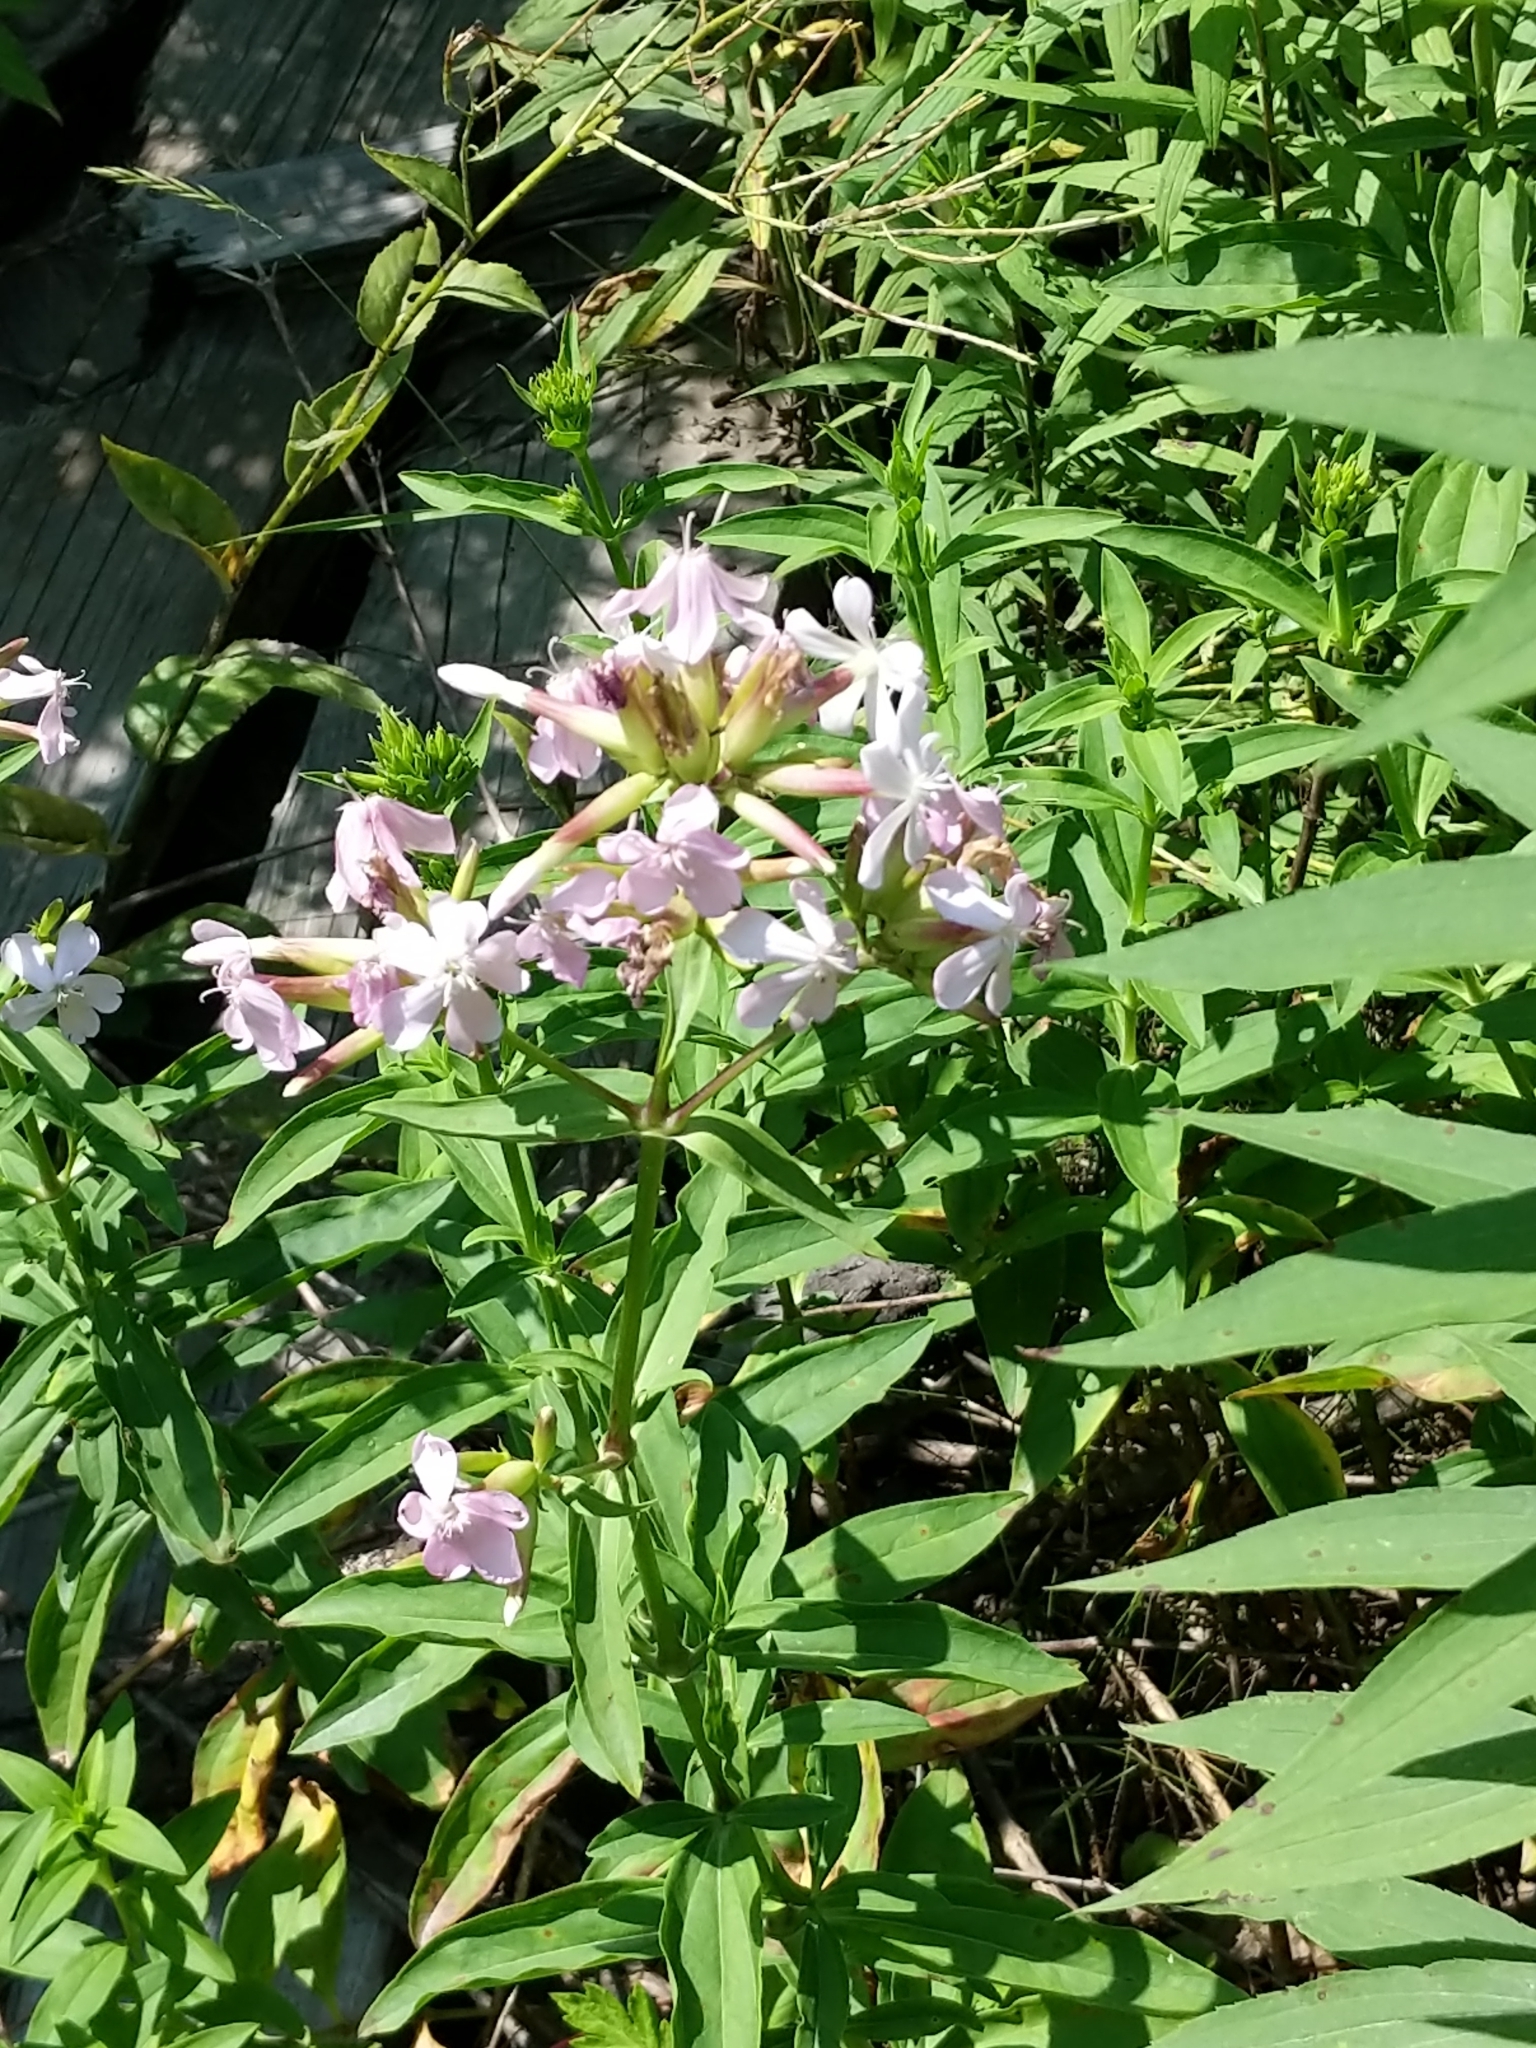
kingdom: Plantae
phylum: Tracheophyta
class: Magnoliopsida
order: Caryophyllales
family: Caryophyllaceae
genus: Saponaria
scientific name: Saponaria officinalis
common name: Soapwort
